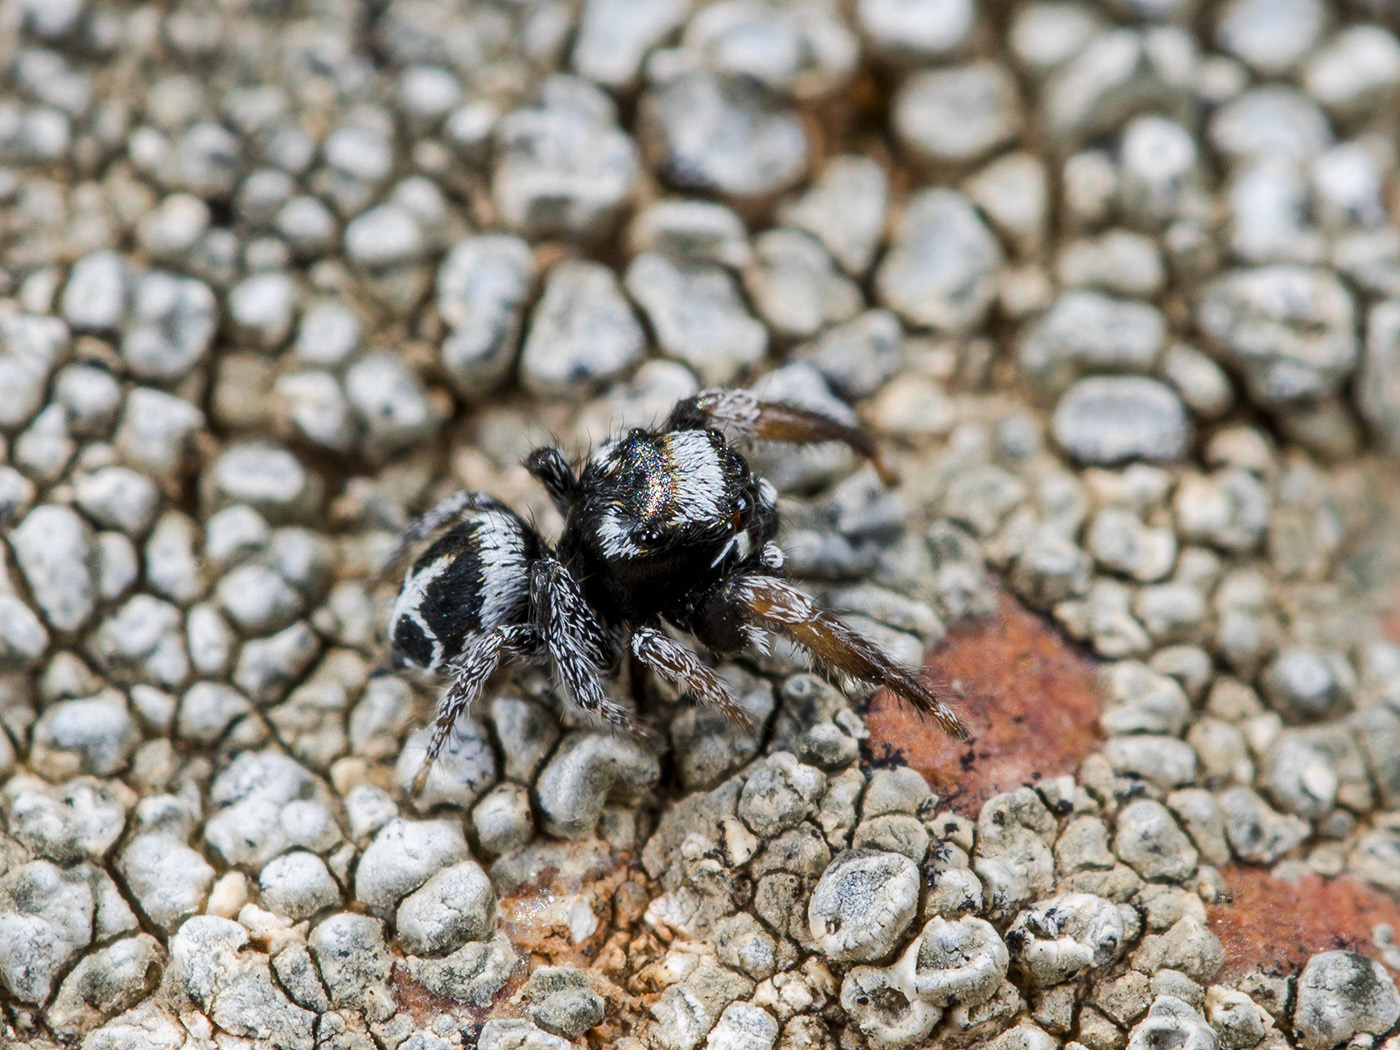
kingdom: Animalia
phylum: Arthropoda
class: Arachnida
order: Araneae
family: Salticidae
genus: Pellenes
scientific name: Pellenes geniculatus
